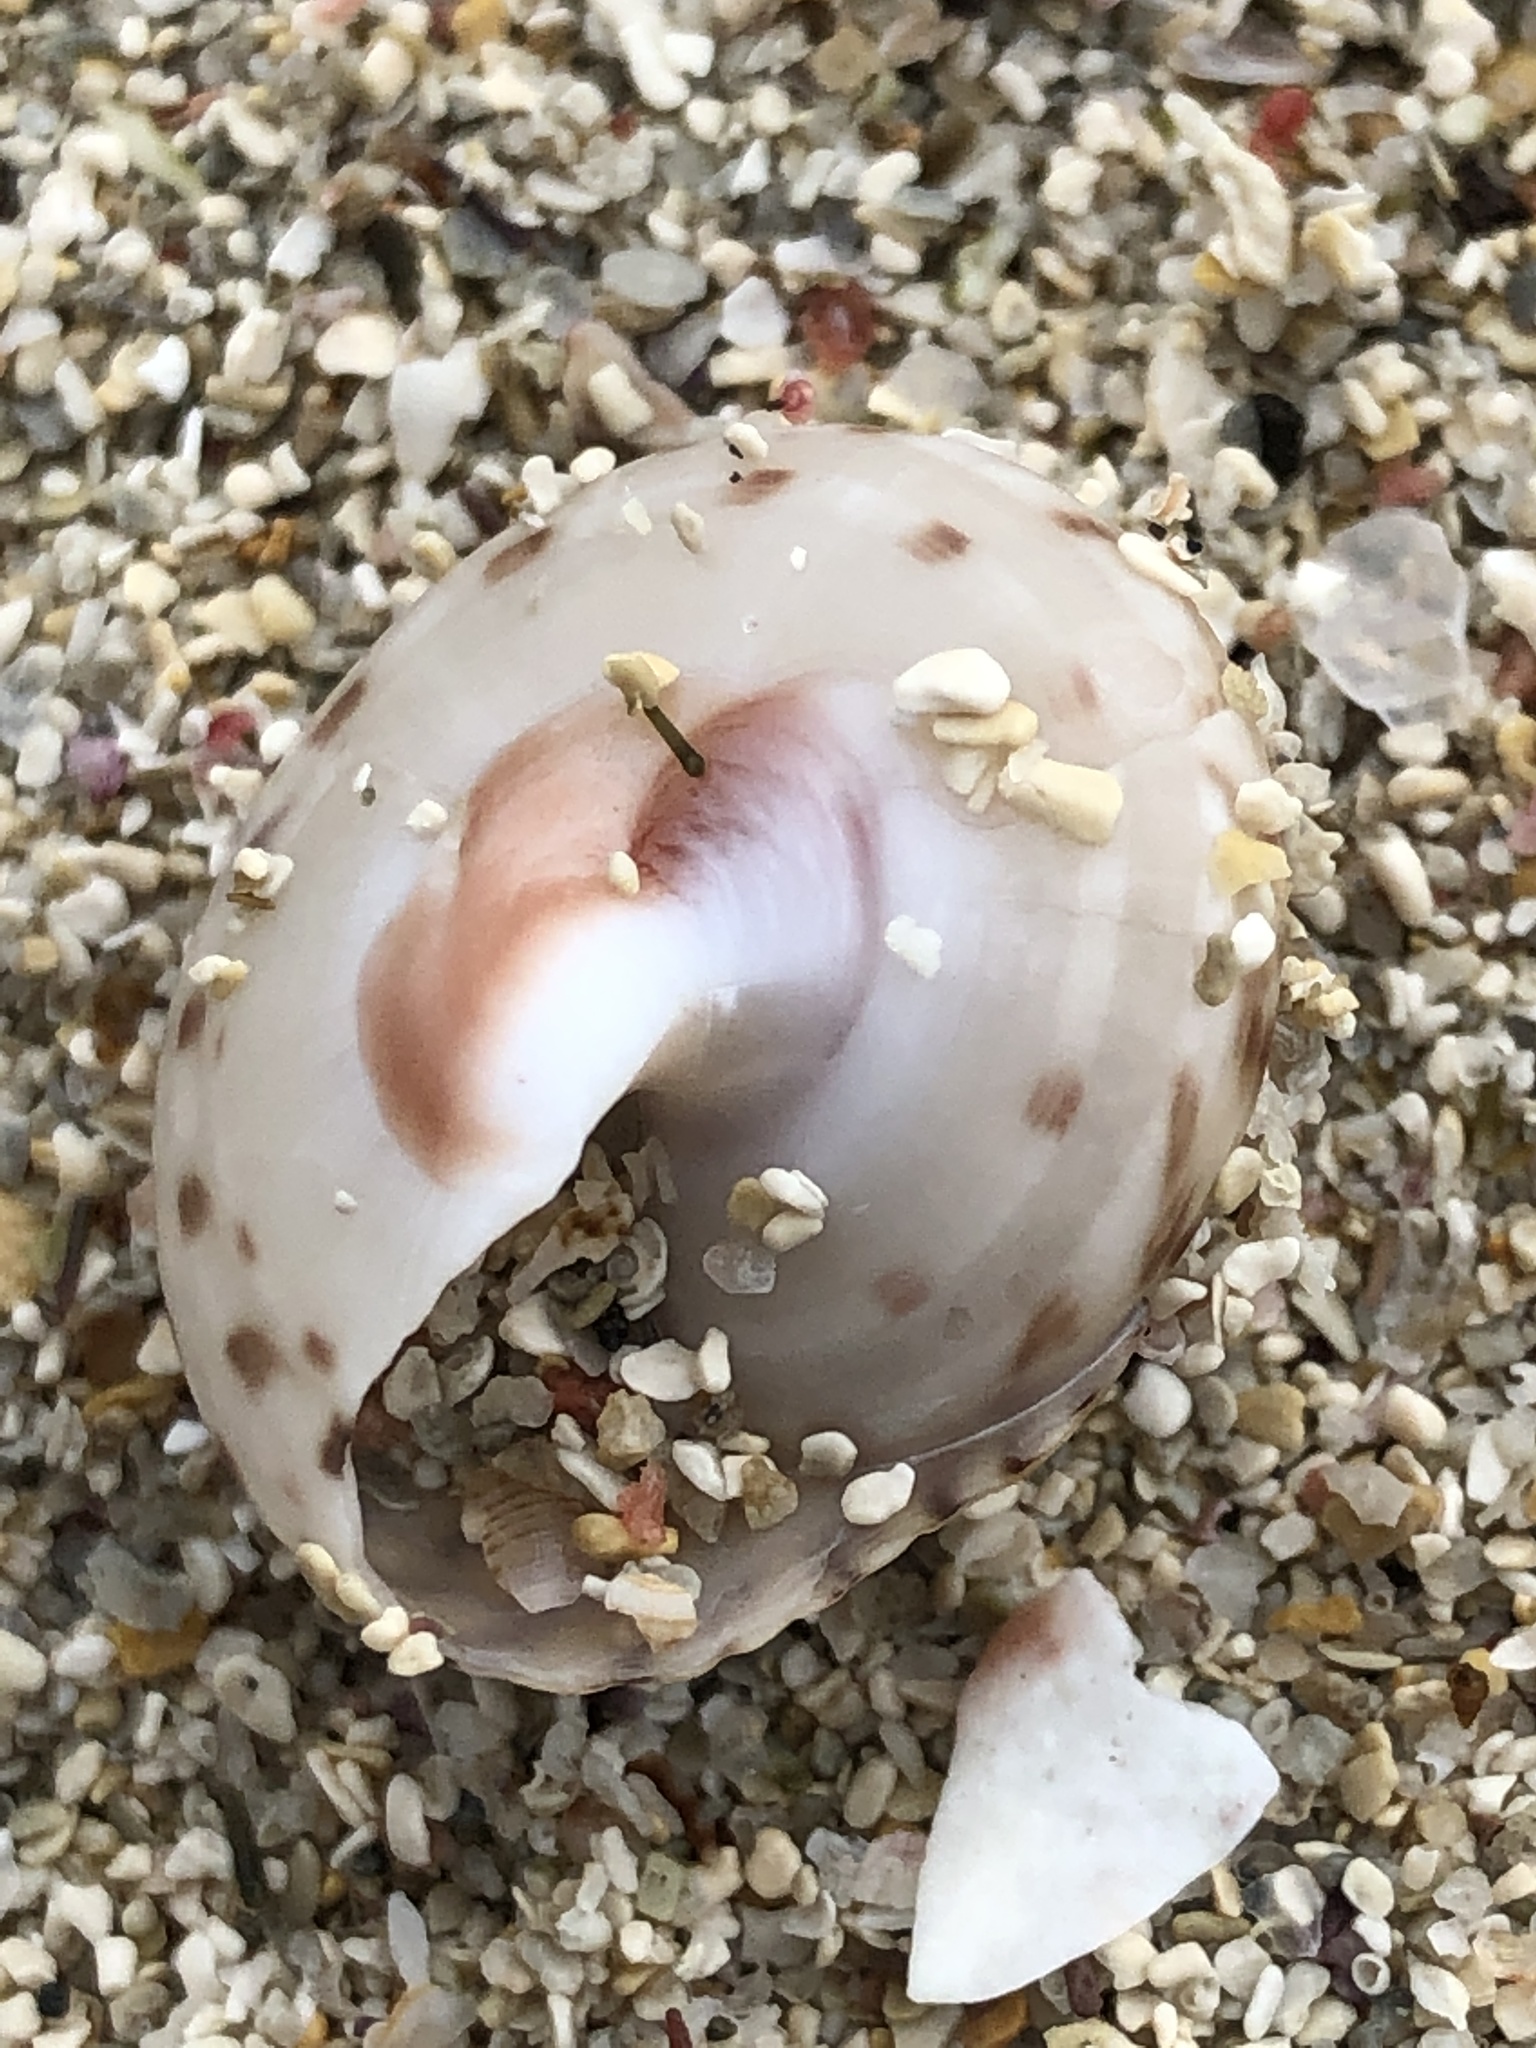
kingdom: Animalia
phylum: Mollusca
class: Gastropoda
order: Trochida
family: Trochidae
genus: Umbonium
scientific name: Umbonium costatum
